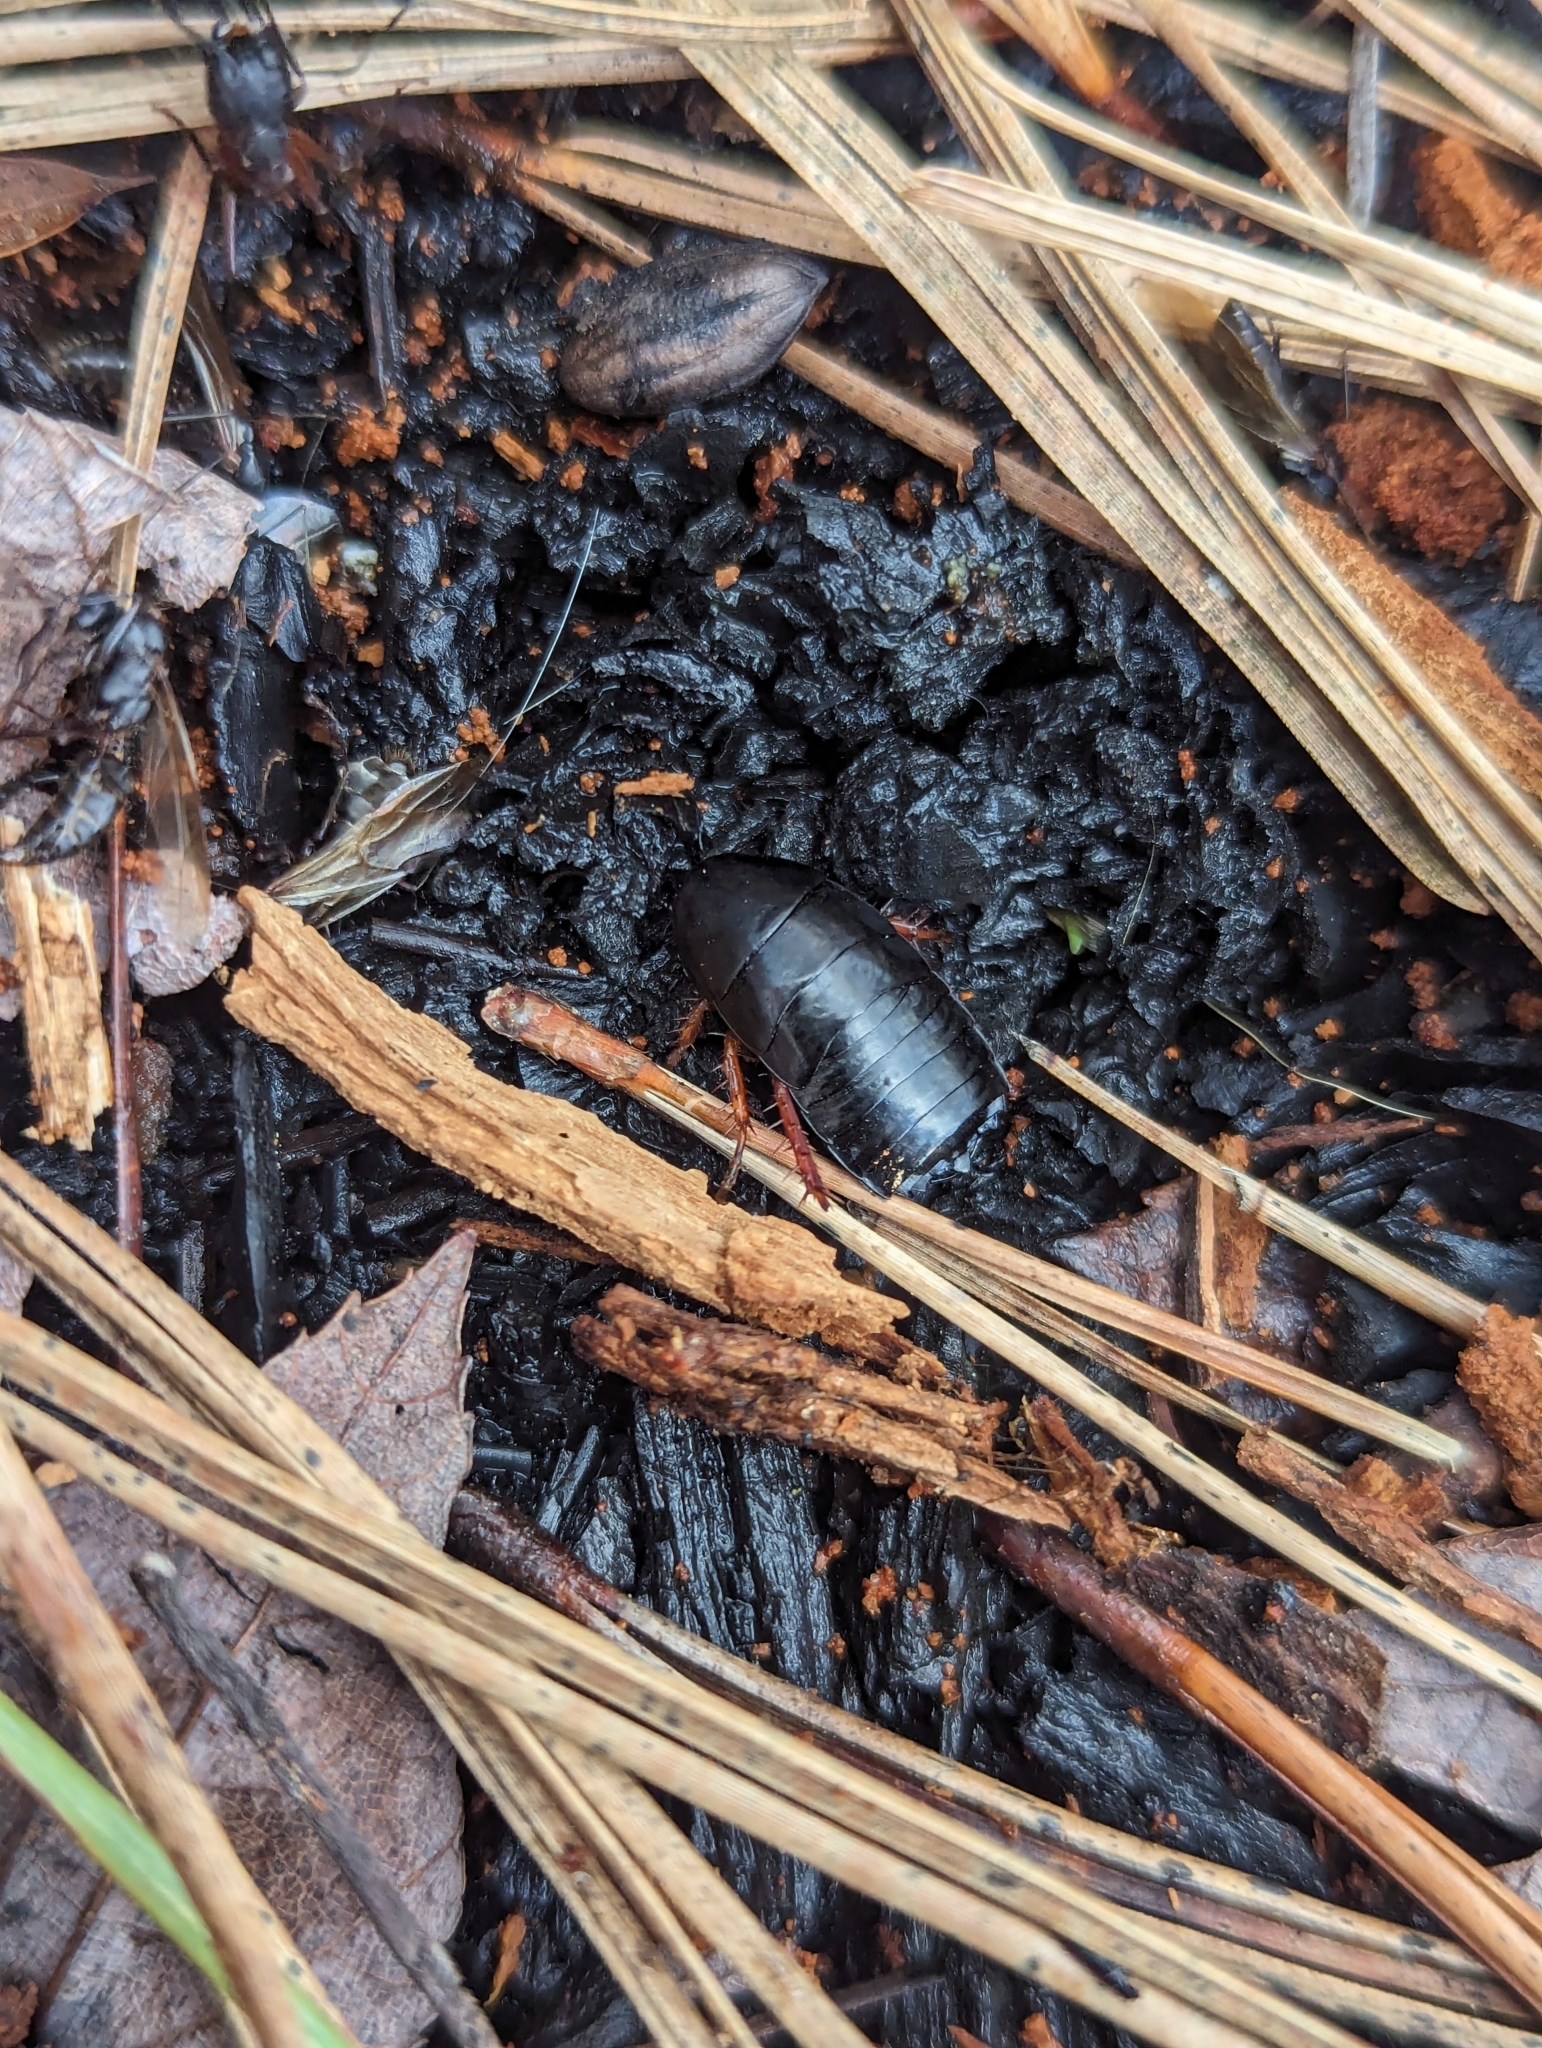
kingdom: Animalia
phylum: Arthropoda
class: Insecta
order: Blattodea
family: Ectobiidae
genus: Ischnoptera
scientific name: Ischnoptera deropeltiformis
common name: Dark wood cockroach
